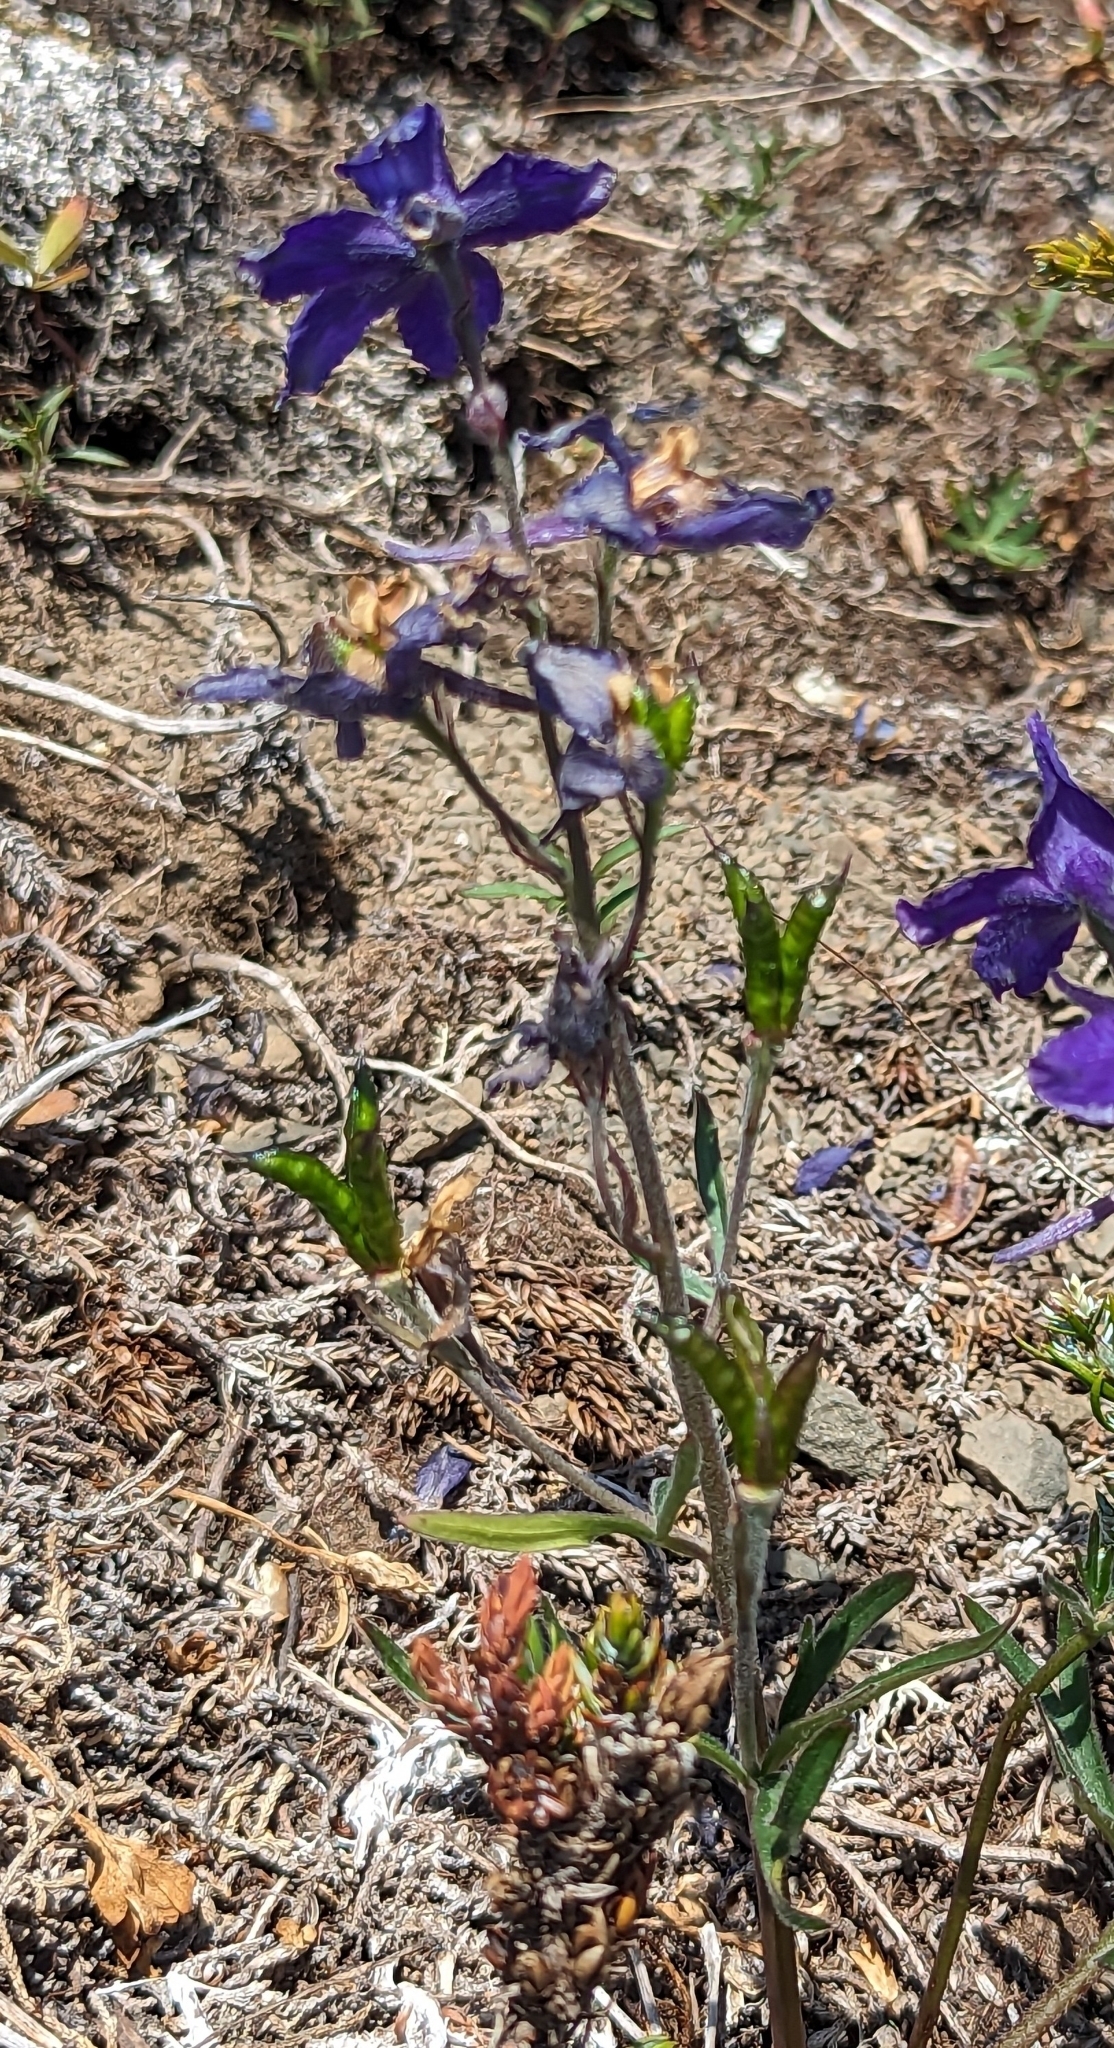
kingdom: Plantae
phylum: Tracheophyta
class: Magnoliopsida
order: Ranunculales
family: Ranunculaceae
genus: Delphinium
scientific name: Delphinium glareosum
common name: Olympic mountain larkspur
